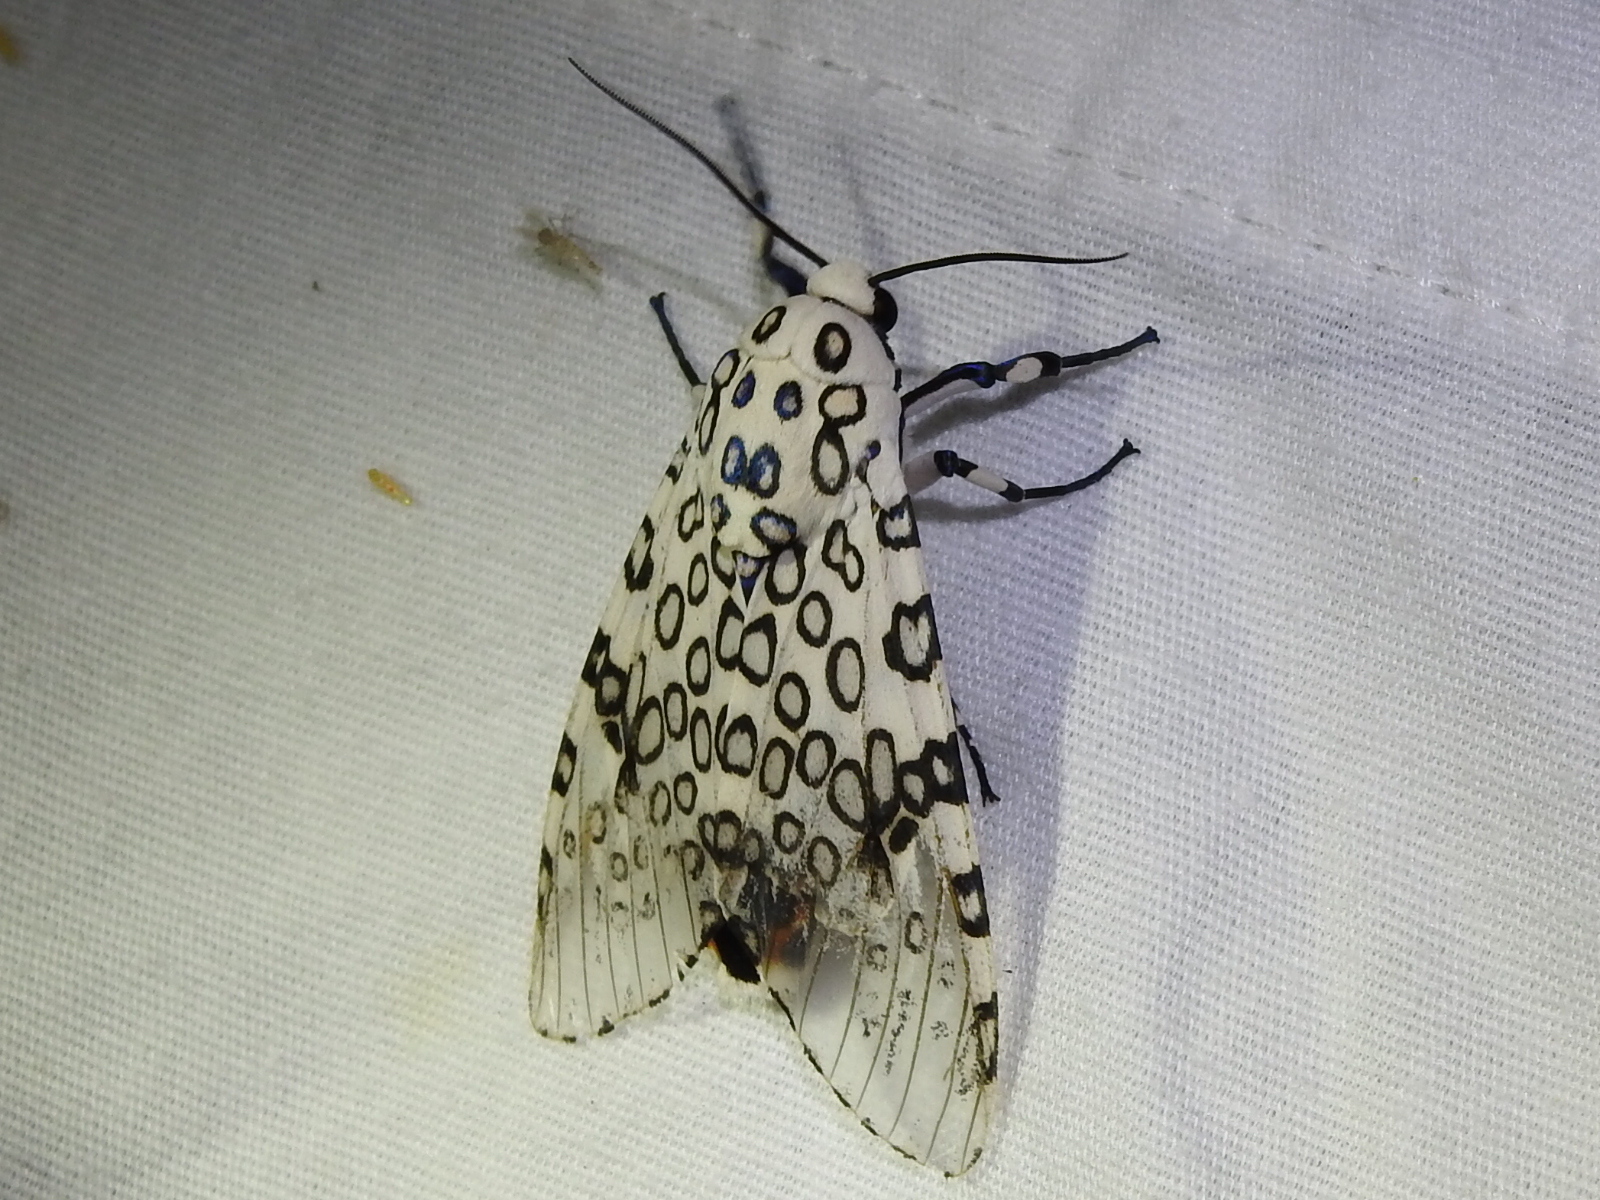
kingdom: Animalia
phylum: Arthropoda
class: Insecta
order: Lepidoptera
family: Erebidae
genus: Hypercompe
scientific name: Hypercompe scribonia
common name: Giant leopard moth
